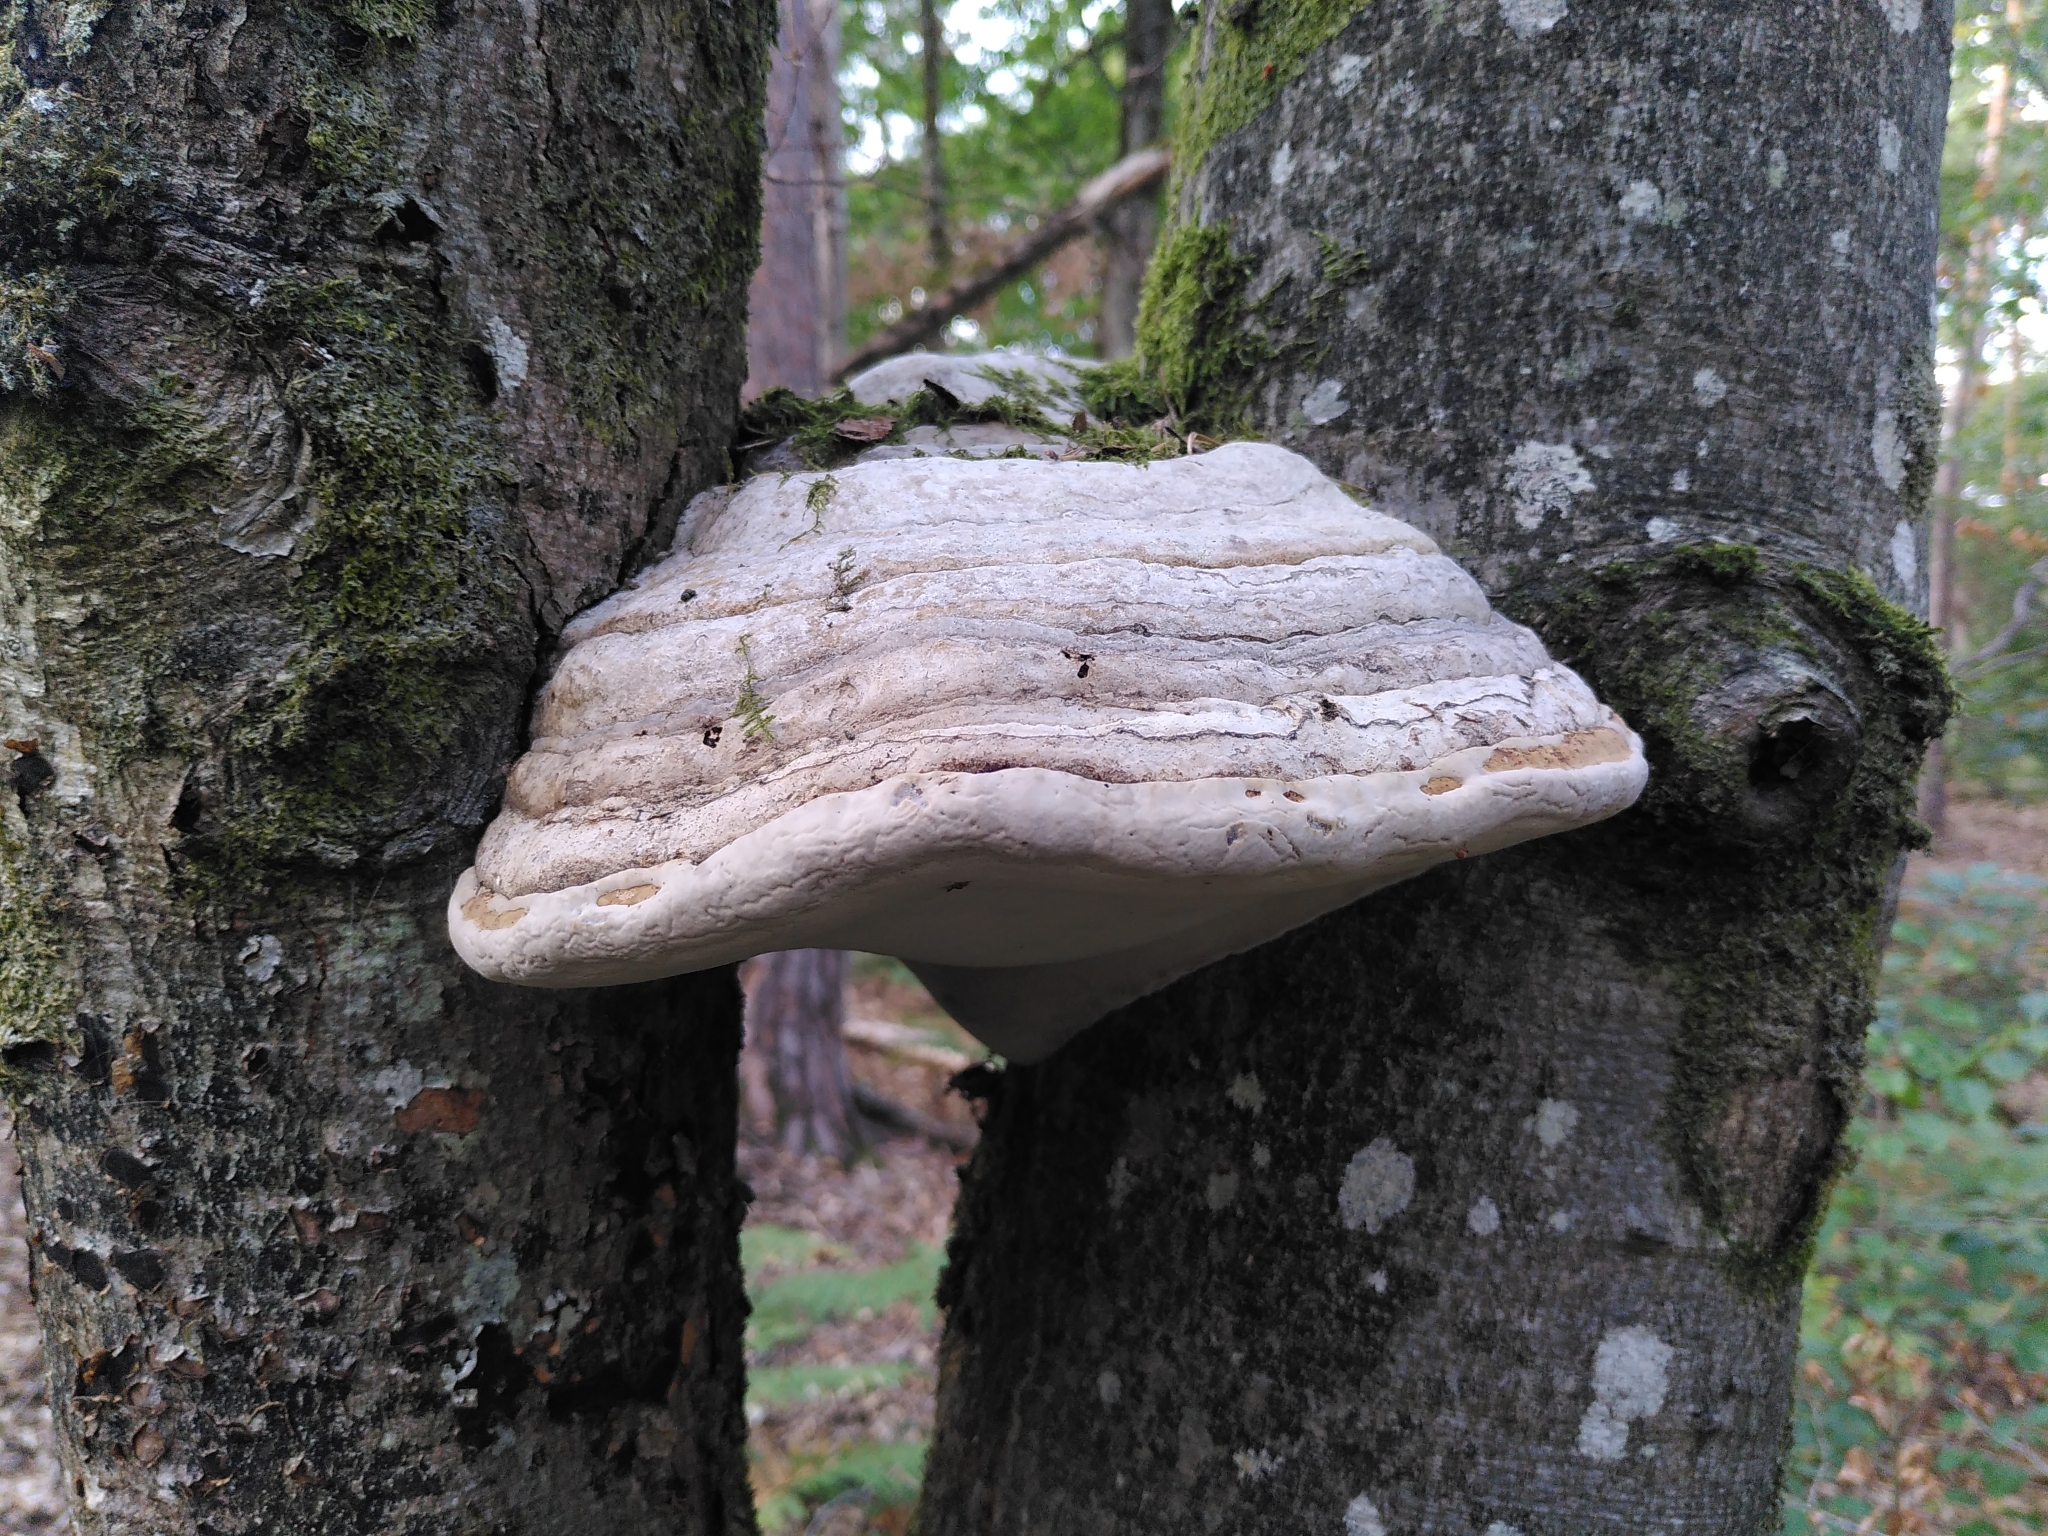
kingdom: Fungi
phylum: Basidiomycota
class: Agaricomycetes
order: Polyporales
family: Polyporaceae
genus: Fomes
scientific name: Fomes fomentarius
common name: Hoof fungus
